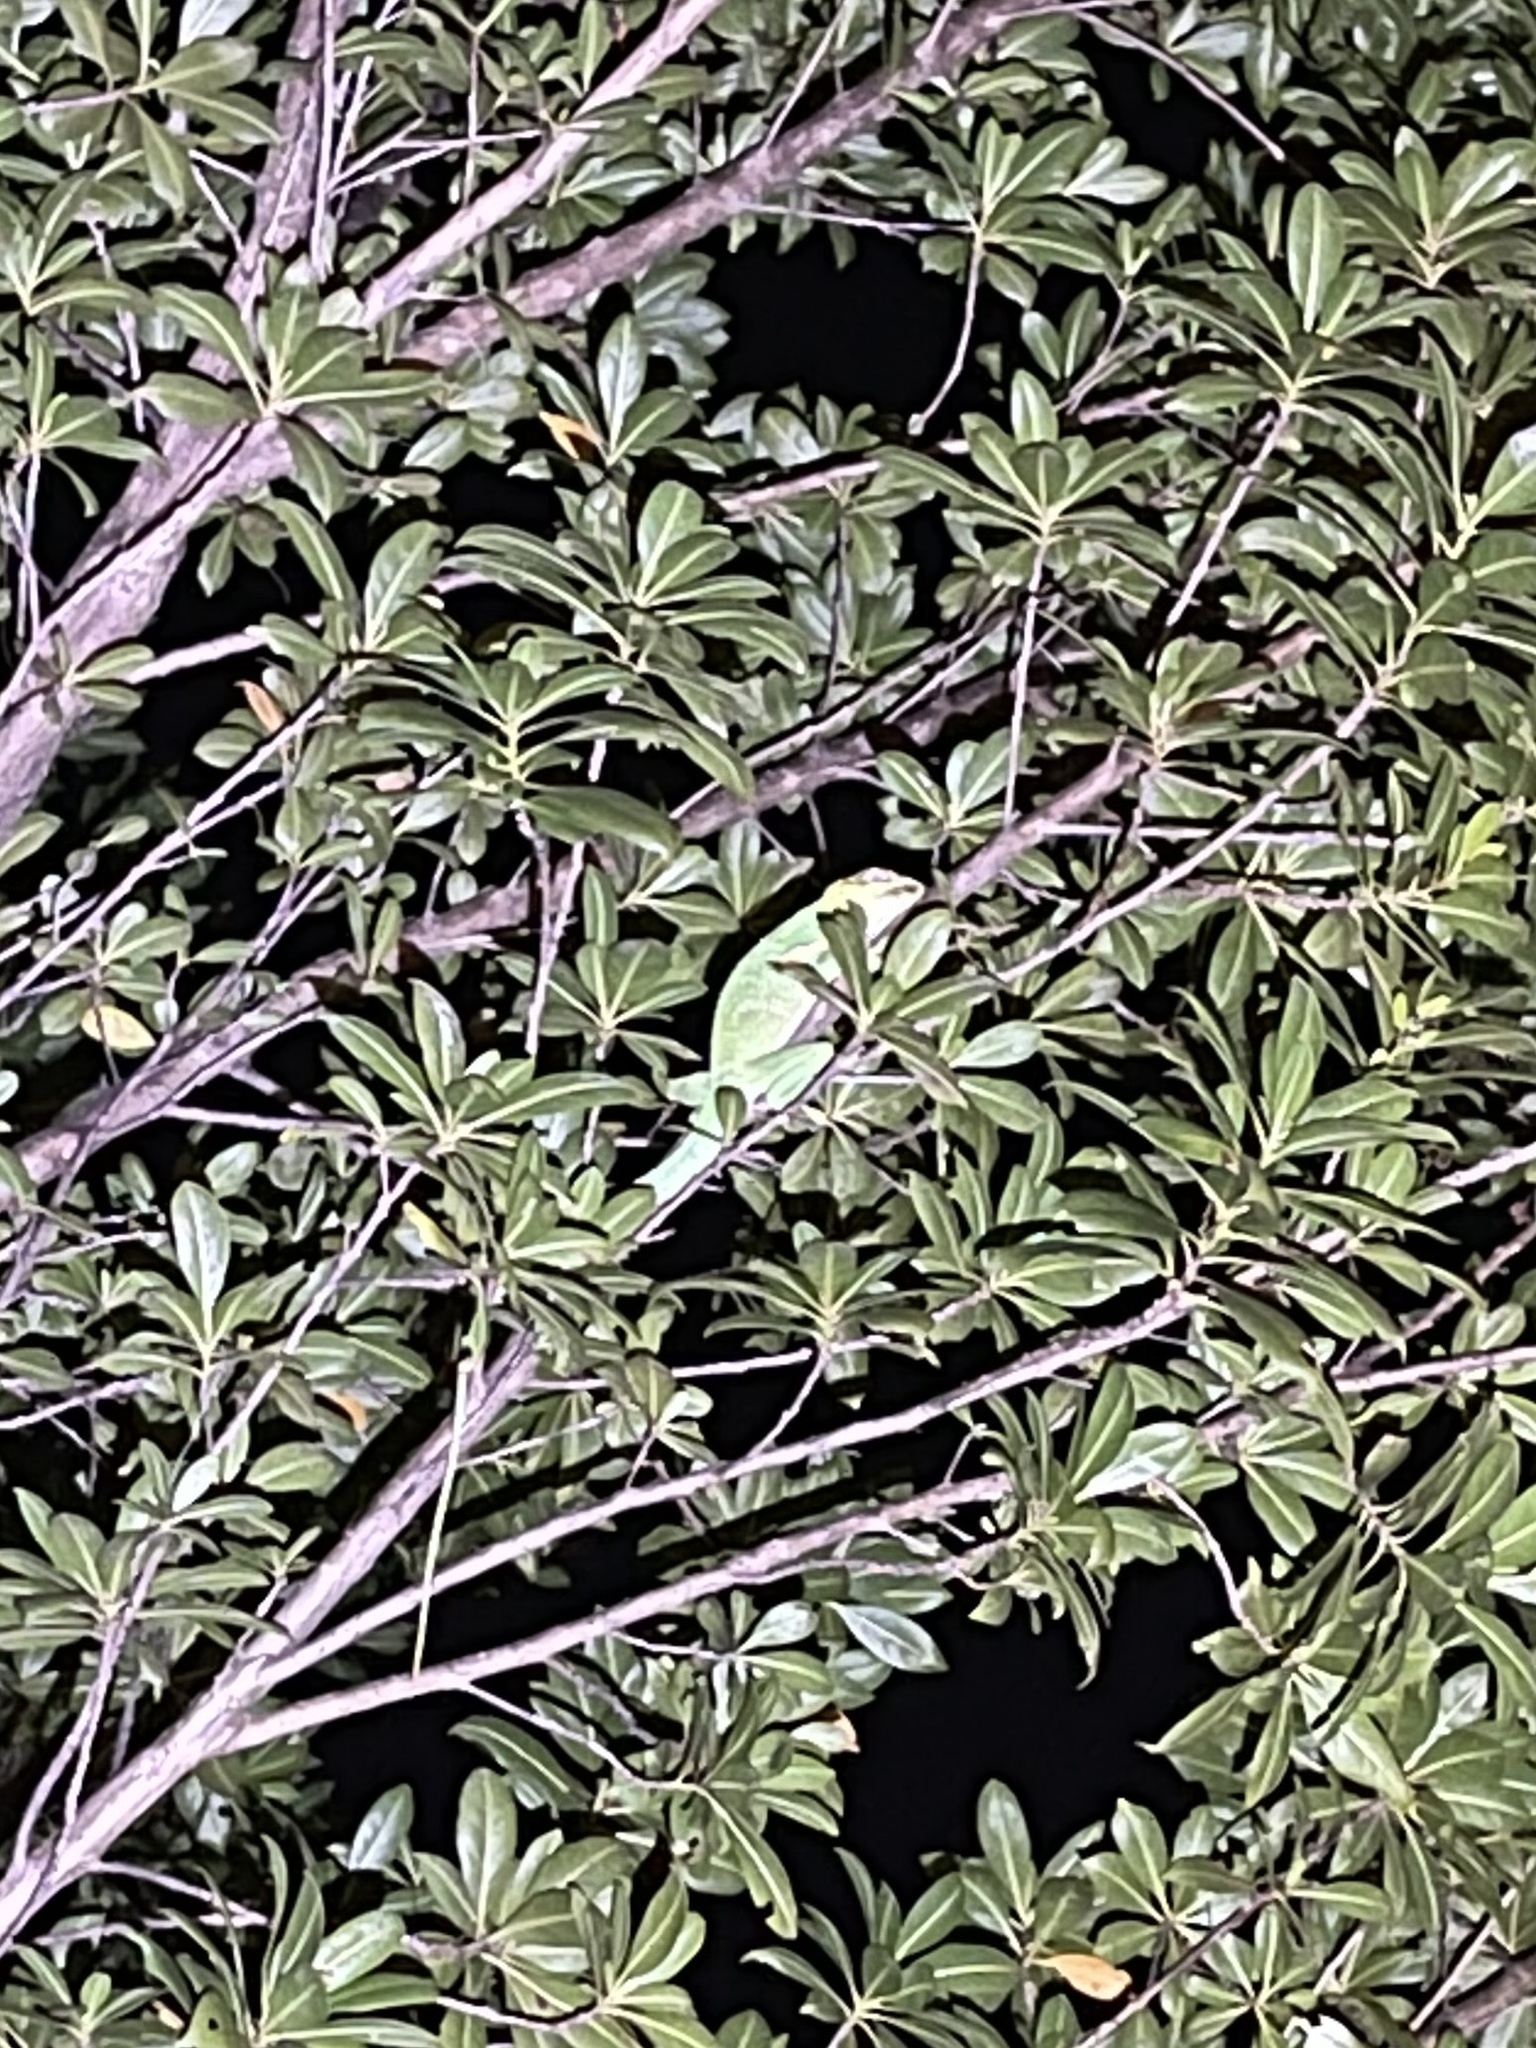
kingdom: Animalia
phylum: Chordata
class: Squamata
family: Dactyloidae
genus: Anolis
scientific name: Anolis equestris
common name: Knight anole
